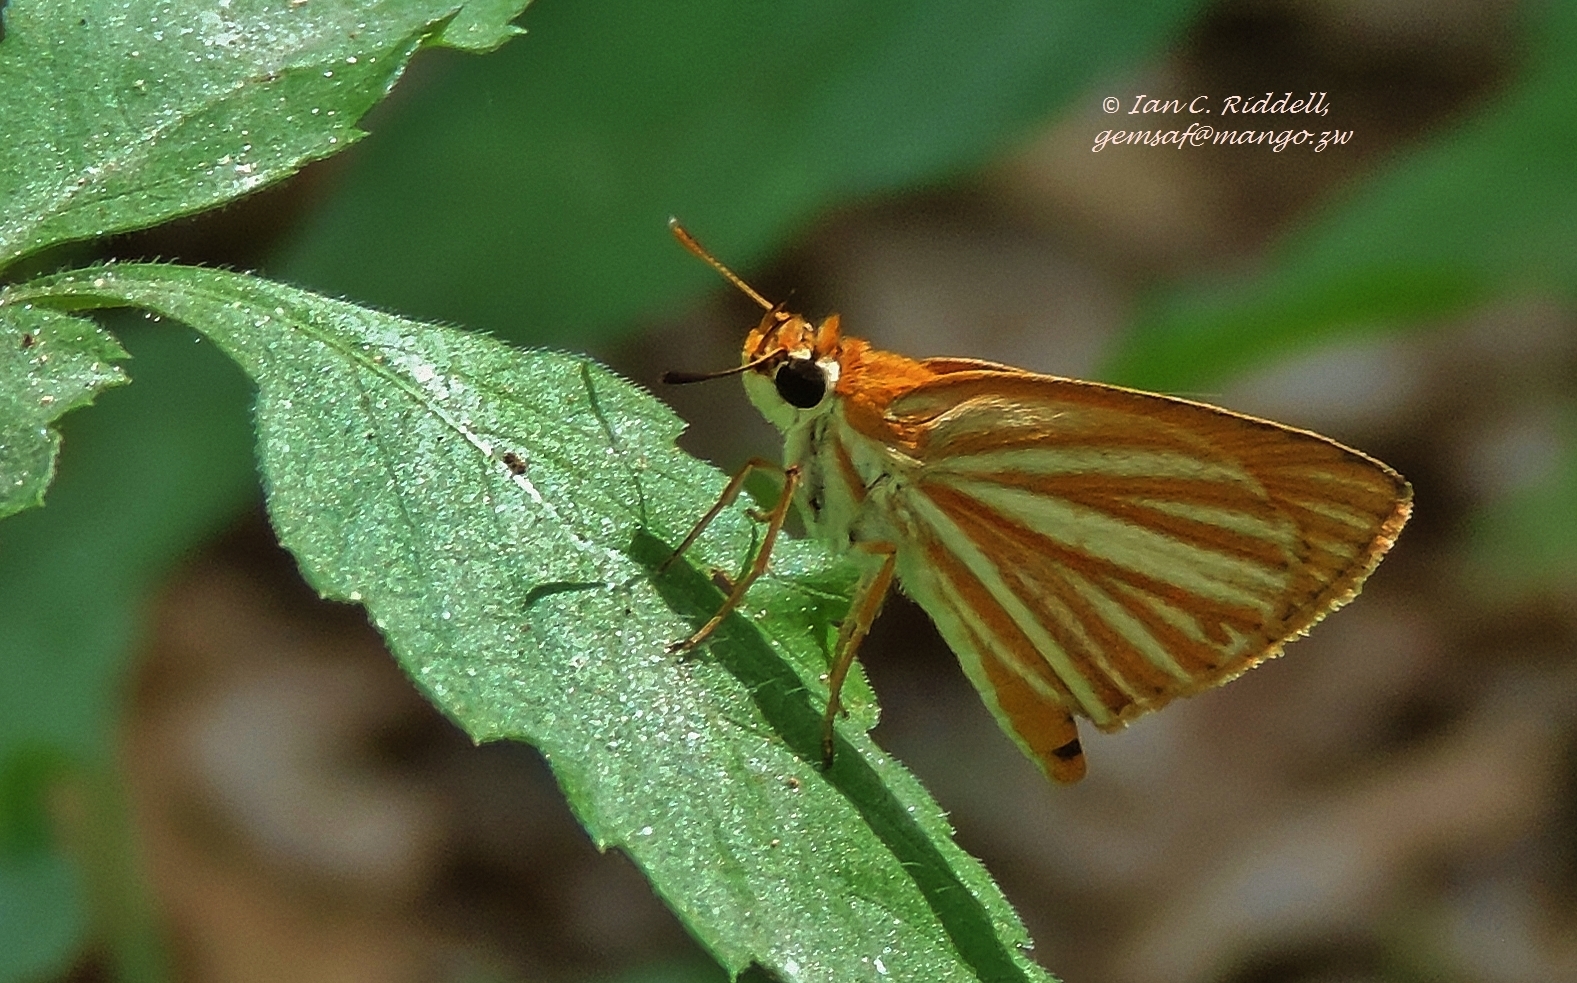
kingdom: Animalia
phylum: Arthropoda
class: Insecta
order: Lepidoptera
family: Hesperiidae
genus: Teniorhinus
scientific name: Teniorhinus harona
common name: Arrowhead orange
